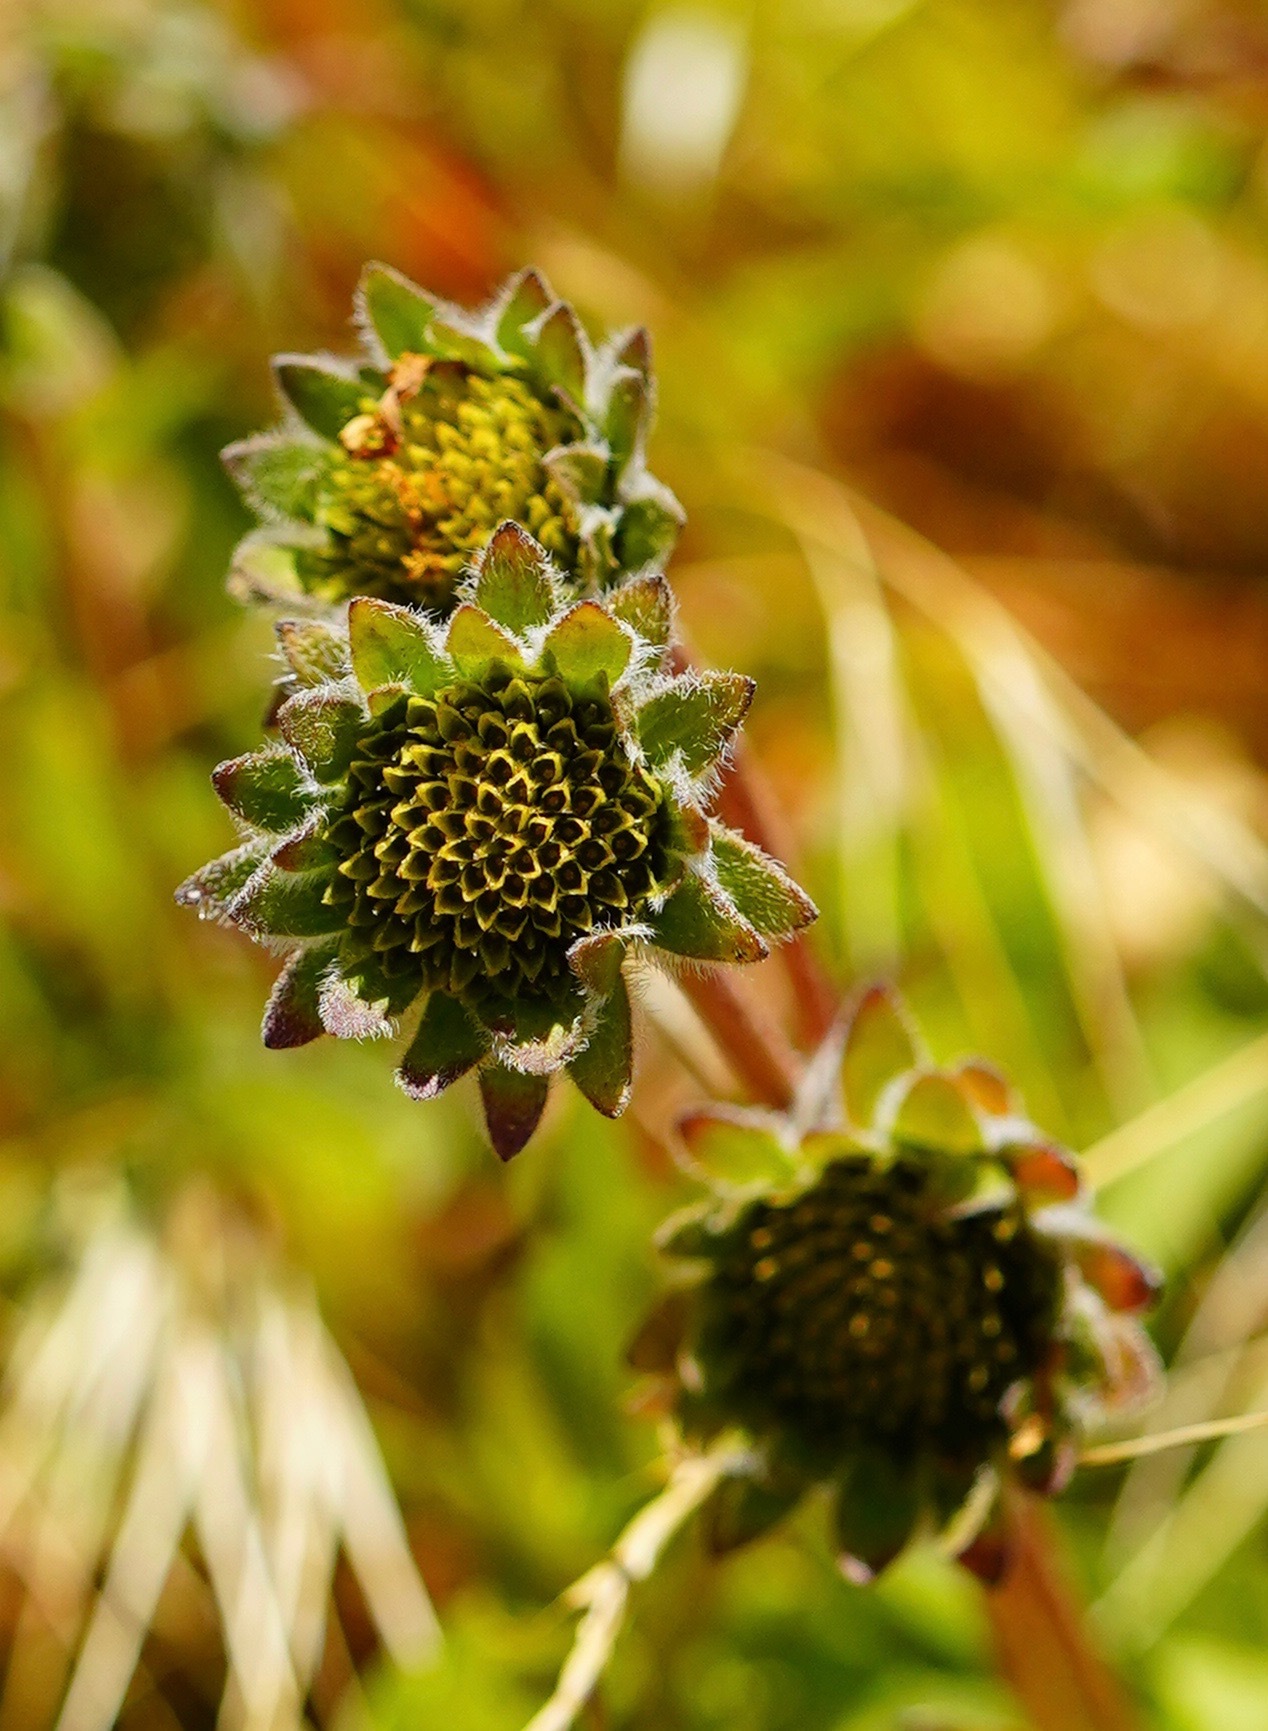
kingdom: Plantae
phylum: Tracheophyta
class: Magnoliopsida
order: Asterales
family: Asteraceae
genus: Wyethia
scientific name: Wyethia angustifolia
